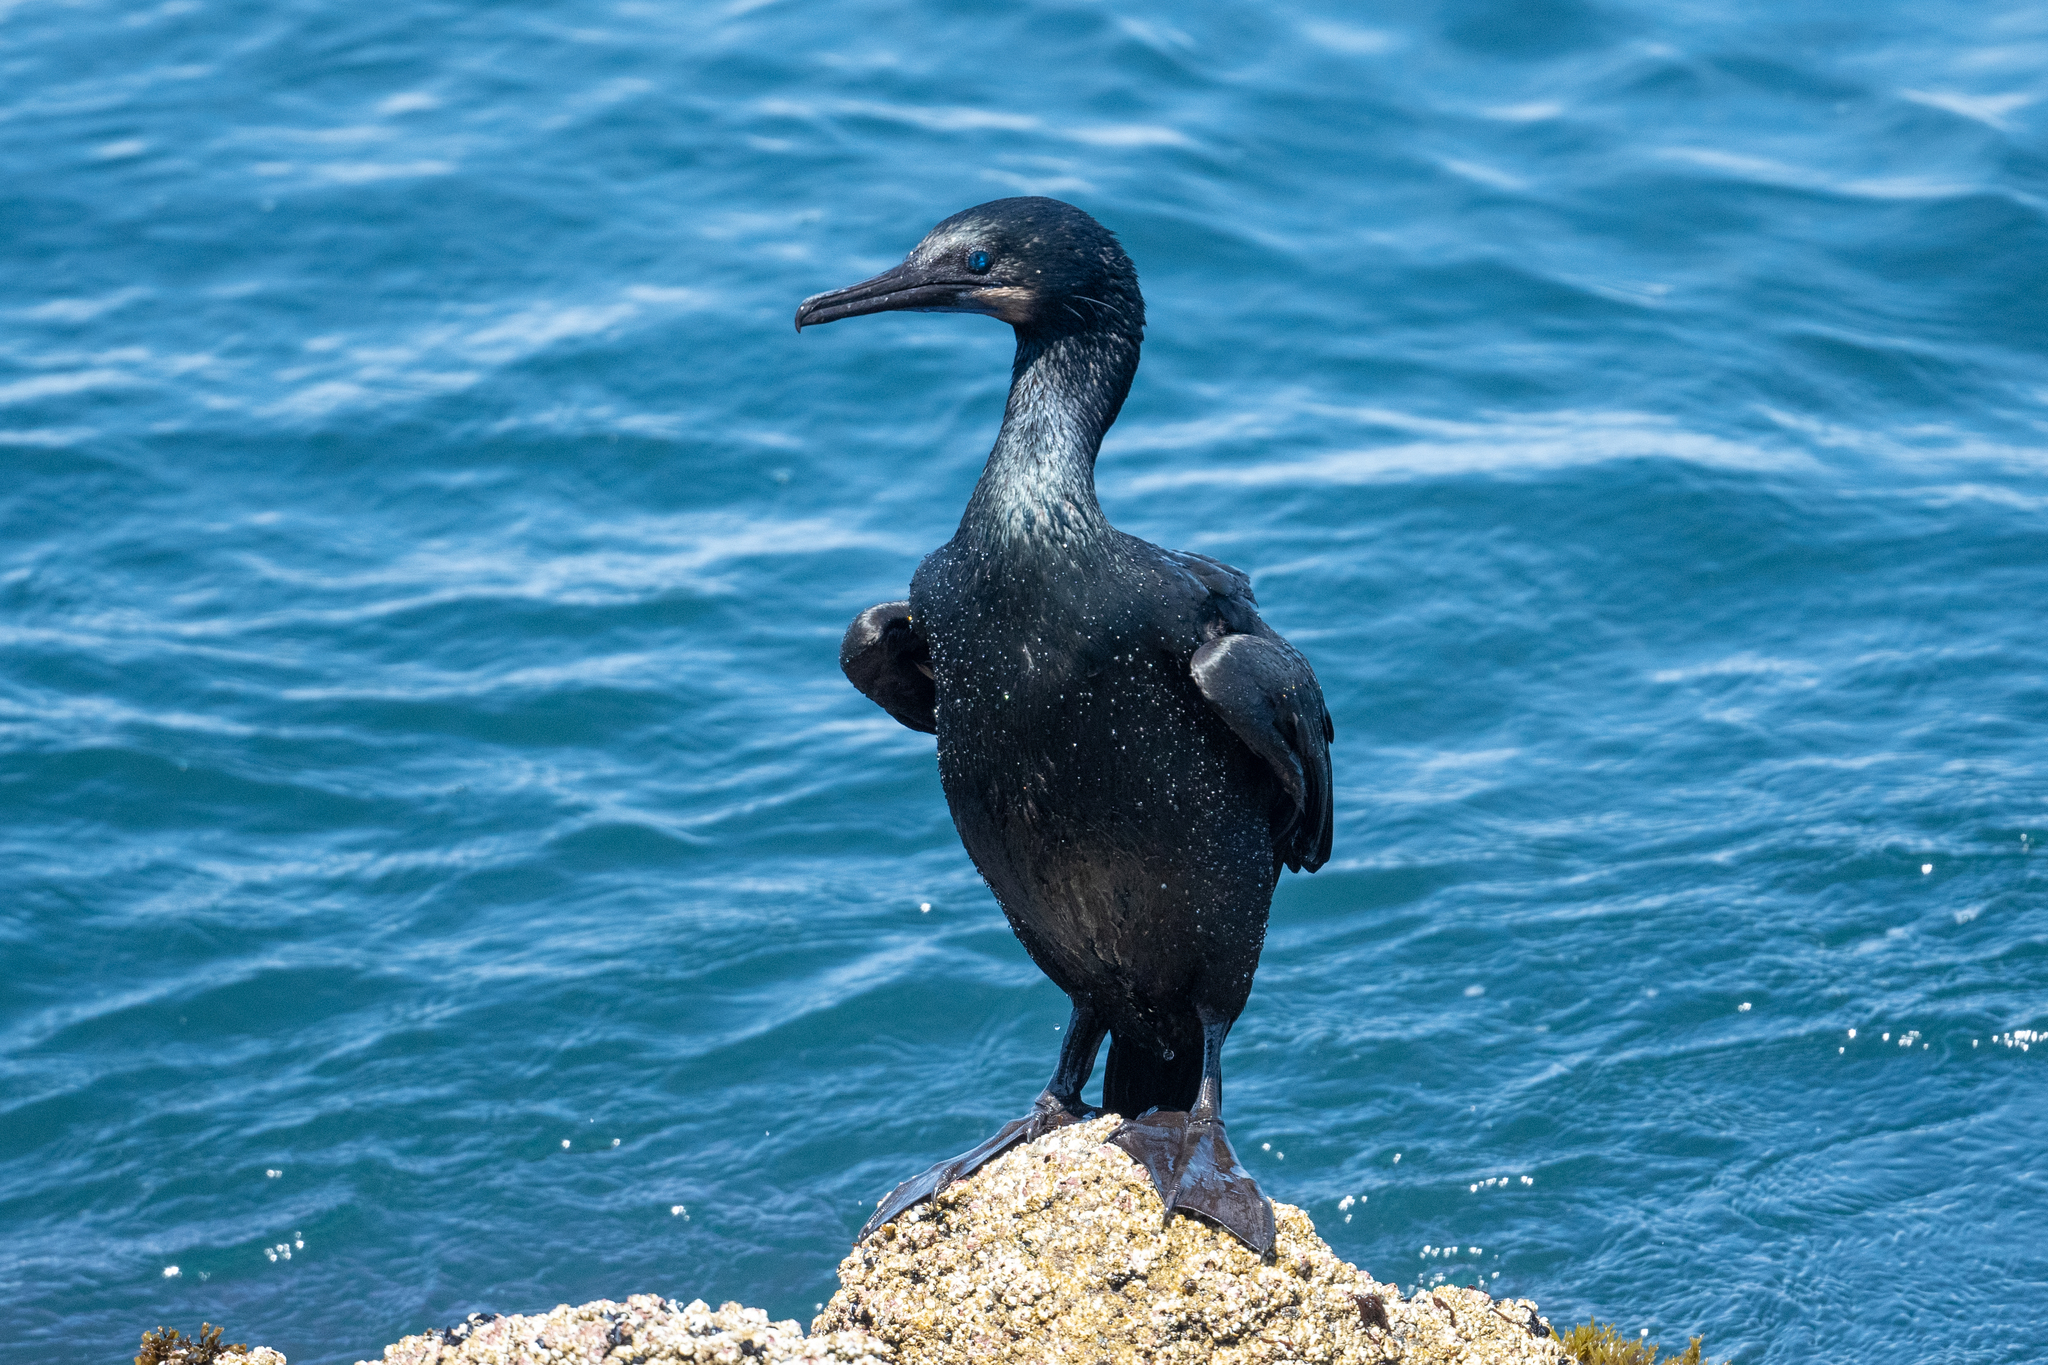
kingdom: Animalia
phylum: Chordata
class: Aves
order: Suliformes
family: Phalacrocoracidae
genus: Urile
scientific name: Urile penicillatus
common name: Brandt's cormorant
